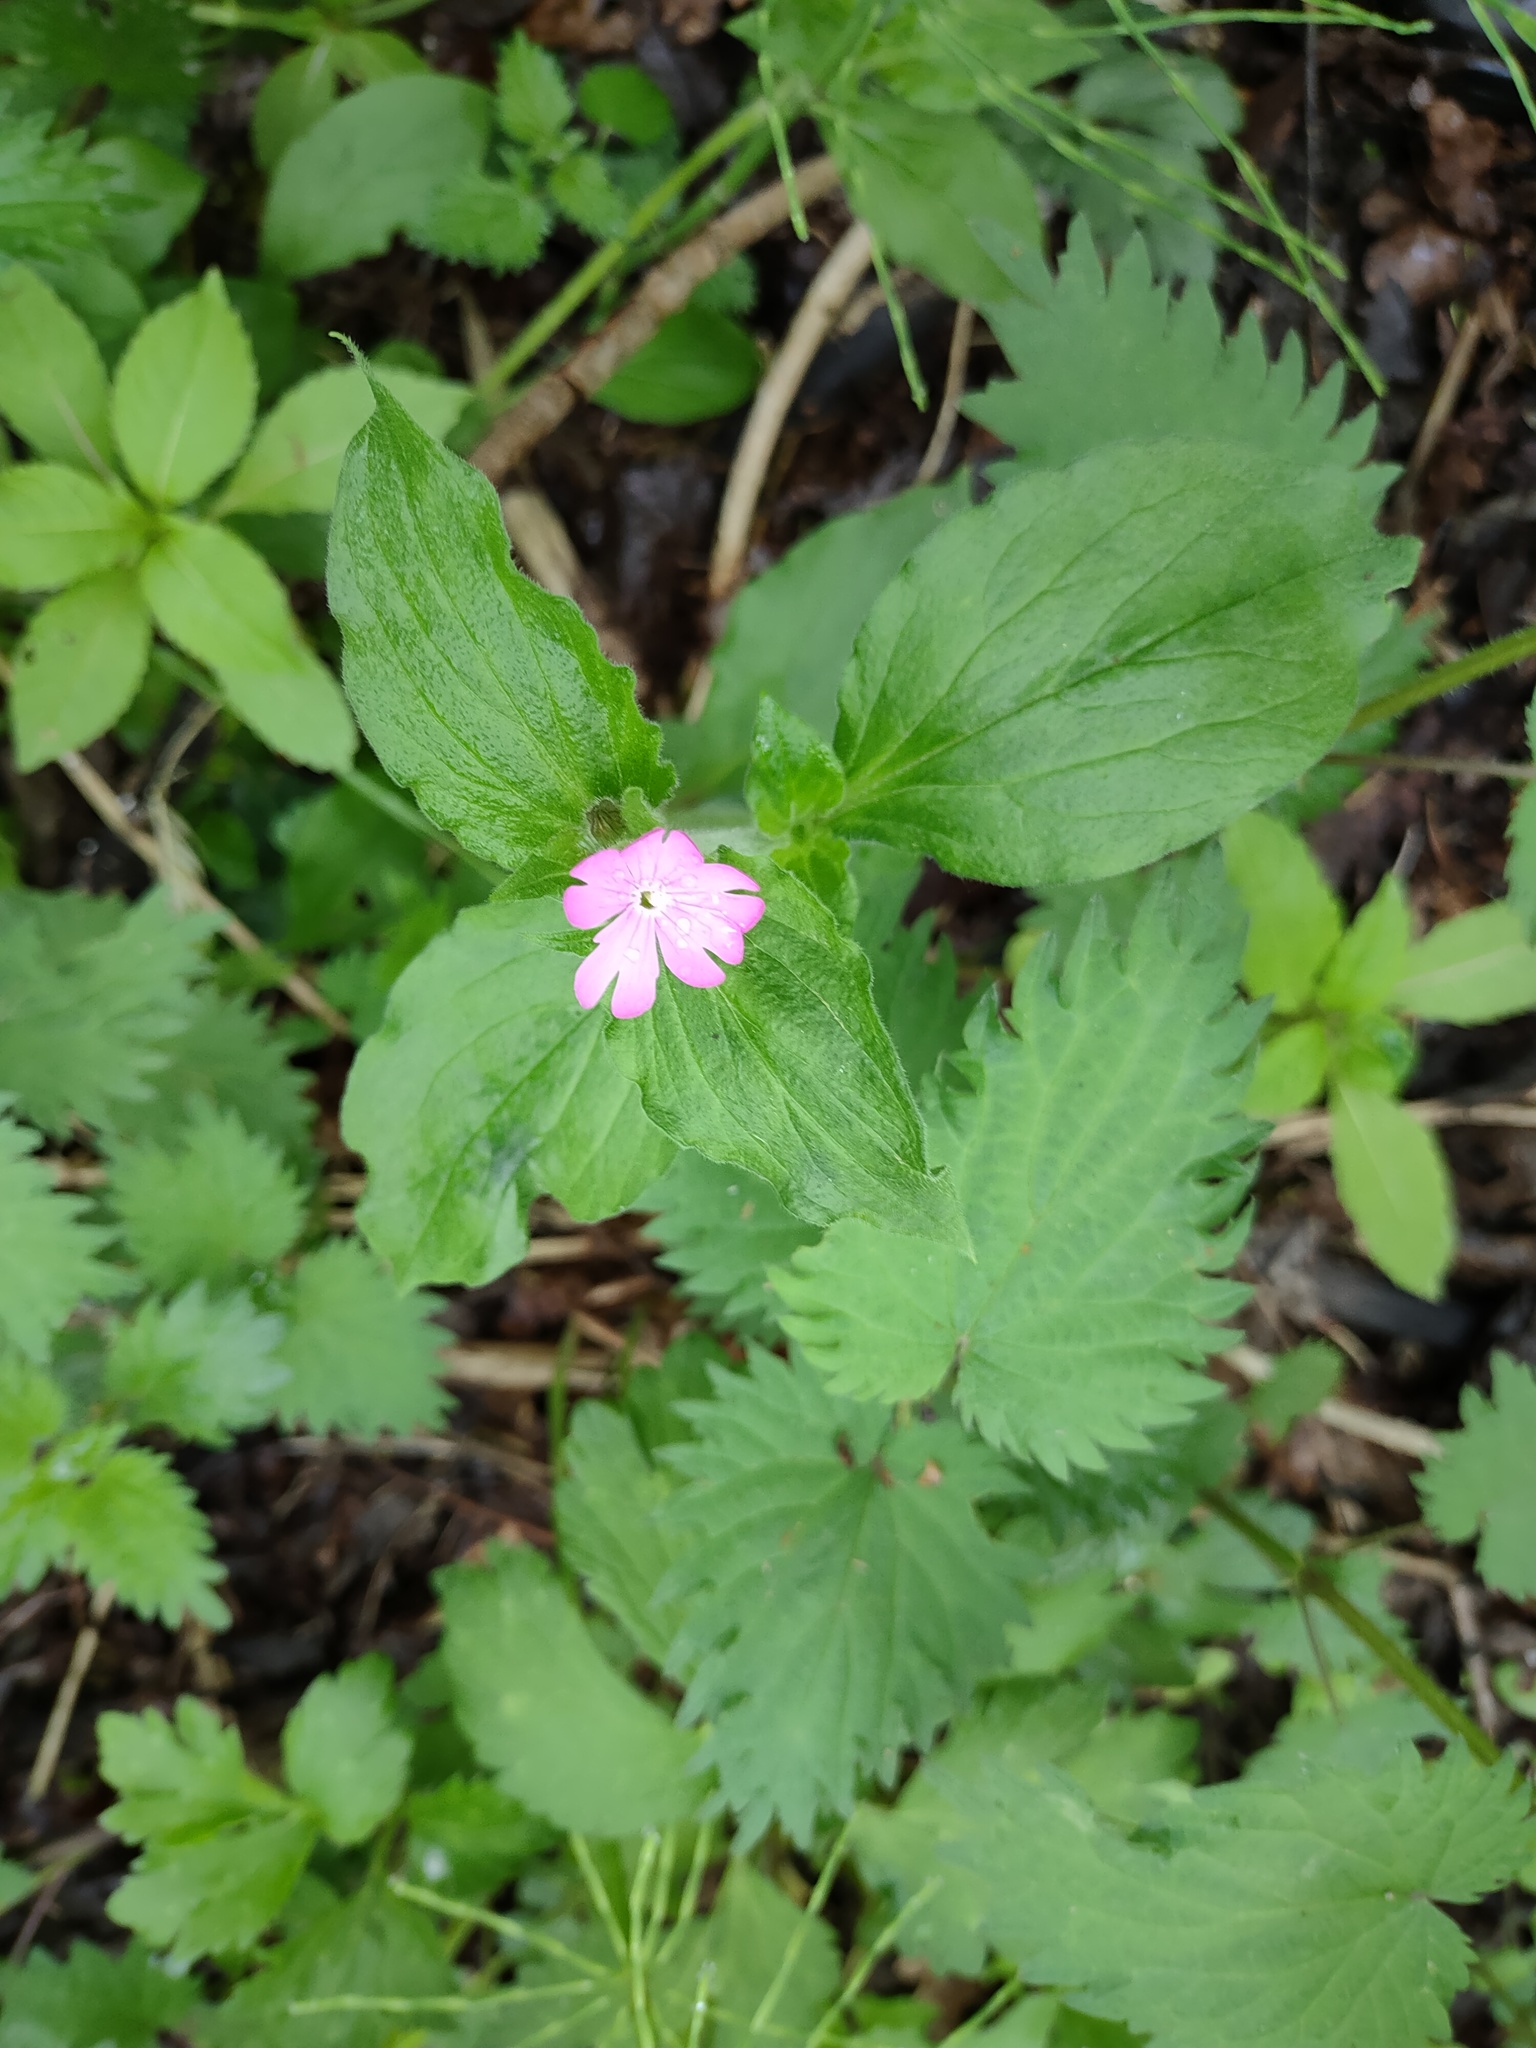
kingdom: Plantae
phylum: Tracheophyta
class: Magnoliopsida
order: Caryophyllales
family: Caryophyllaceae
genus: Silene
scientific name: Silene dioica
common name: Red campion
